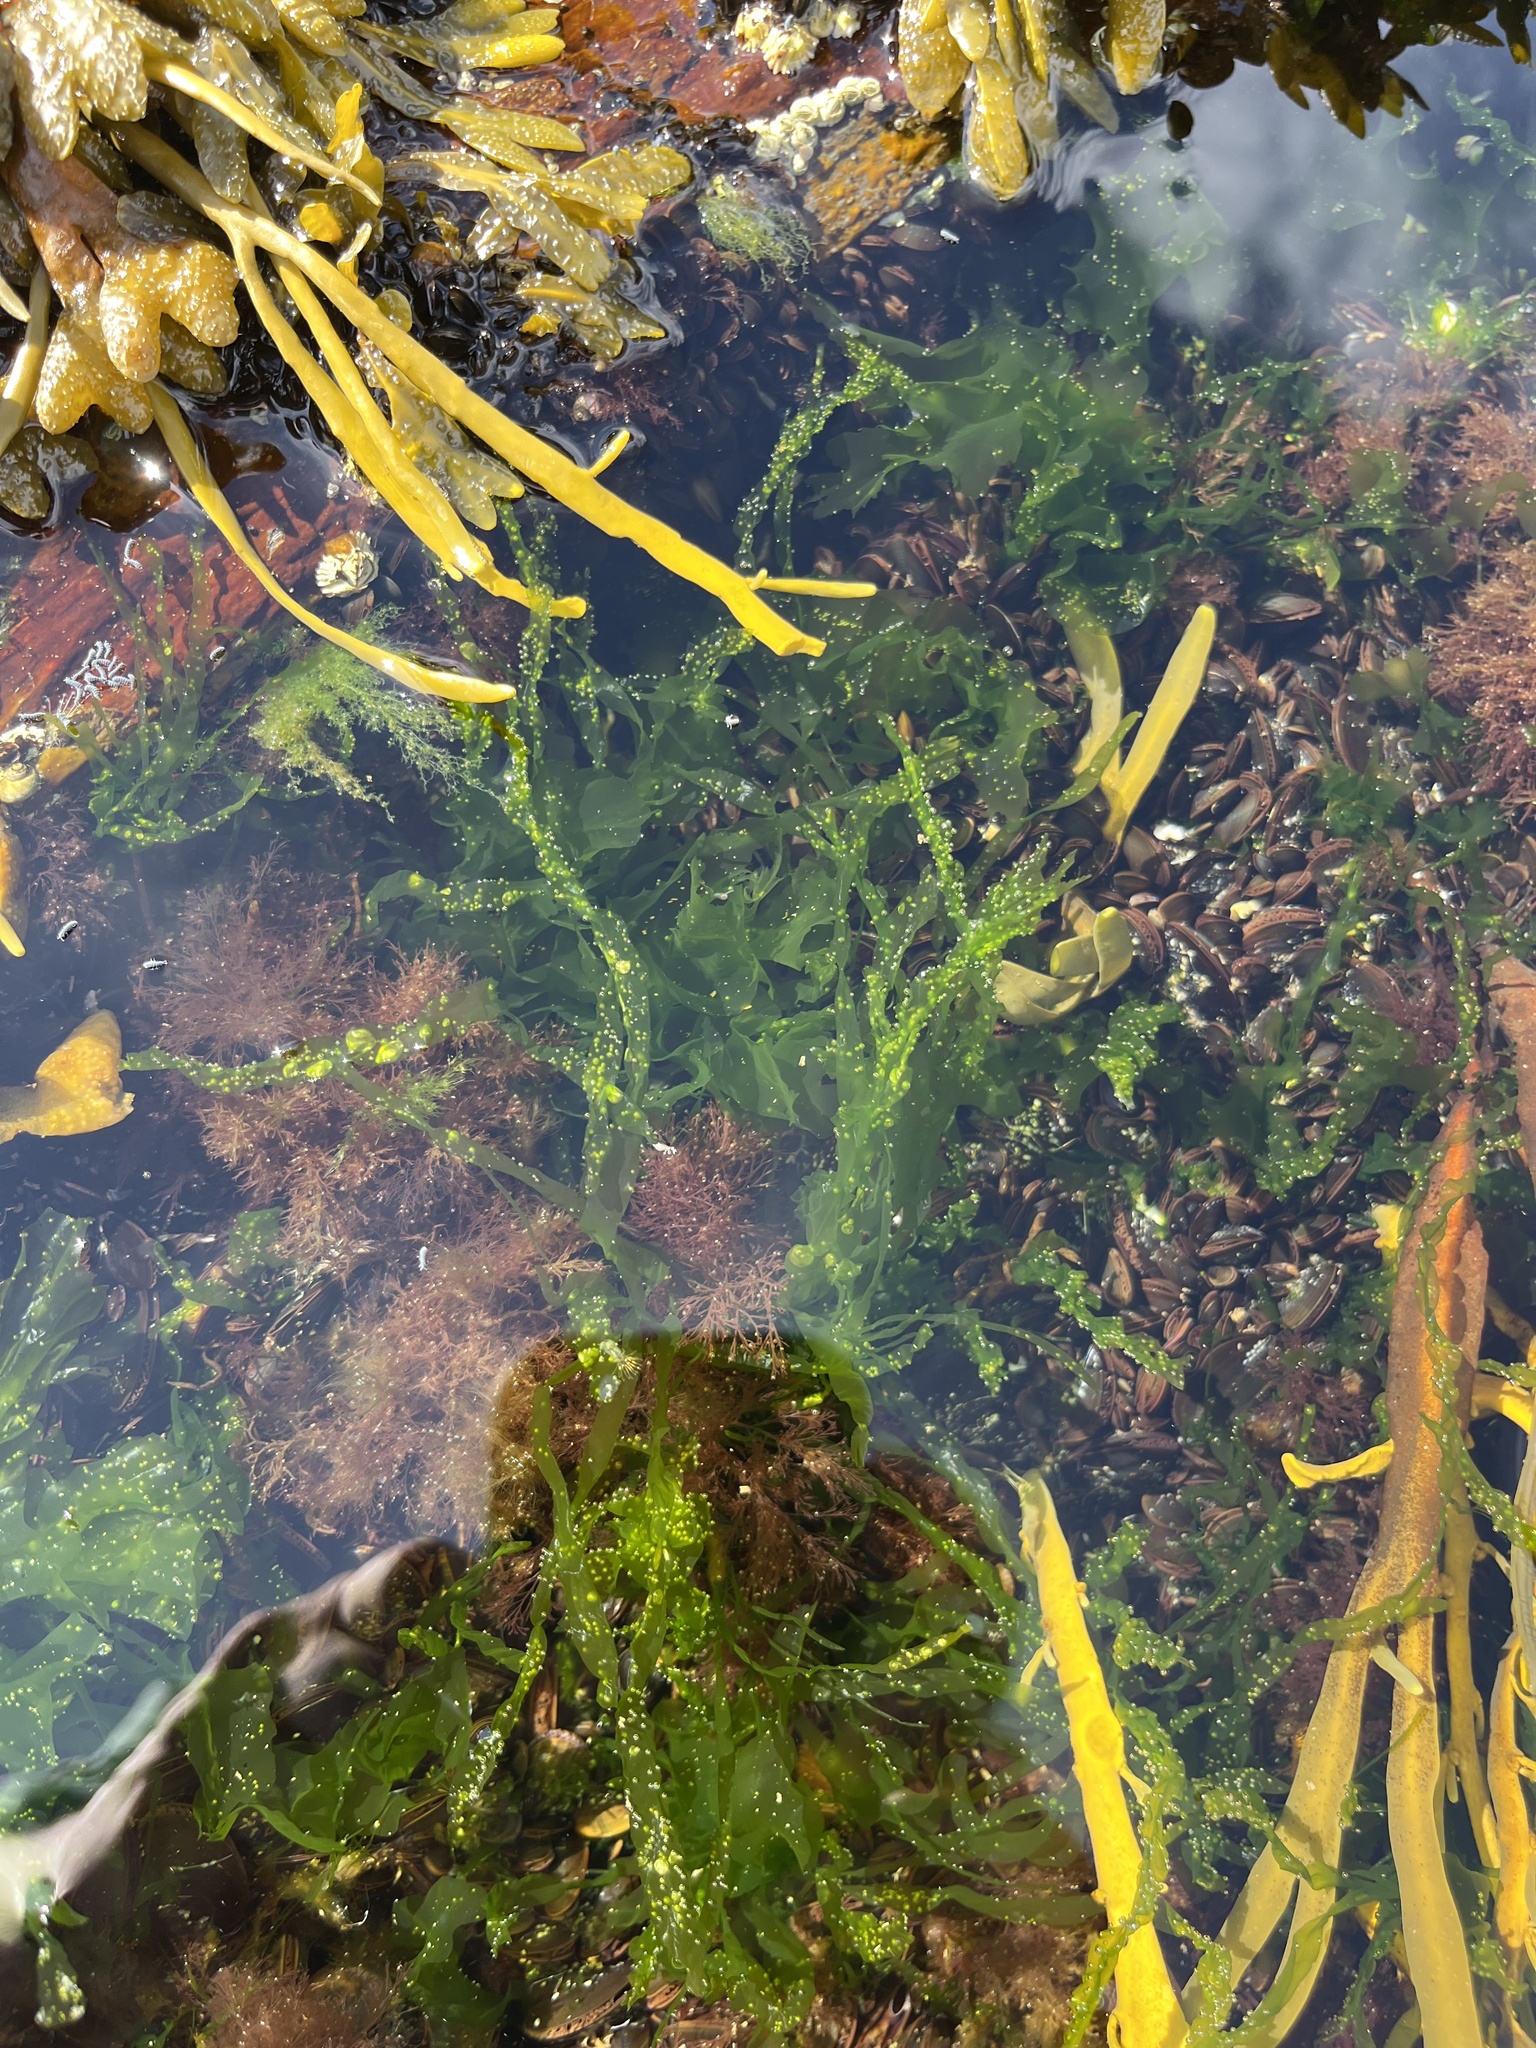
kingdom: Plantae
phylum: Chlorophyta
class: Ulvophyceae
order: Ulvales
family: Ulvaceae
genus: Ulva
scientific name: Ulva intestinalis
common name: Gut weed
